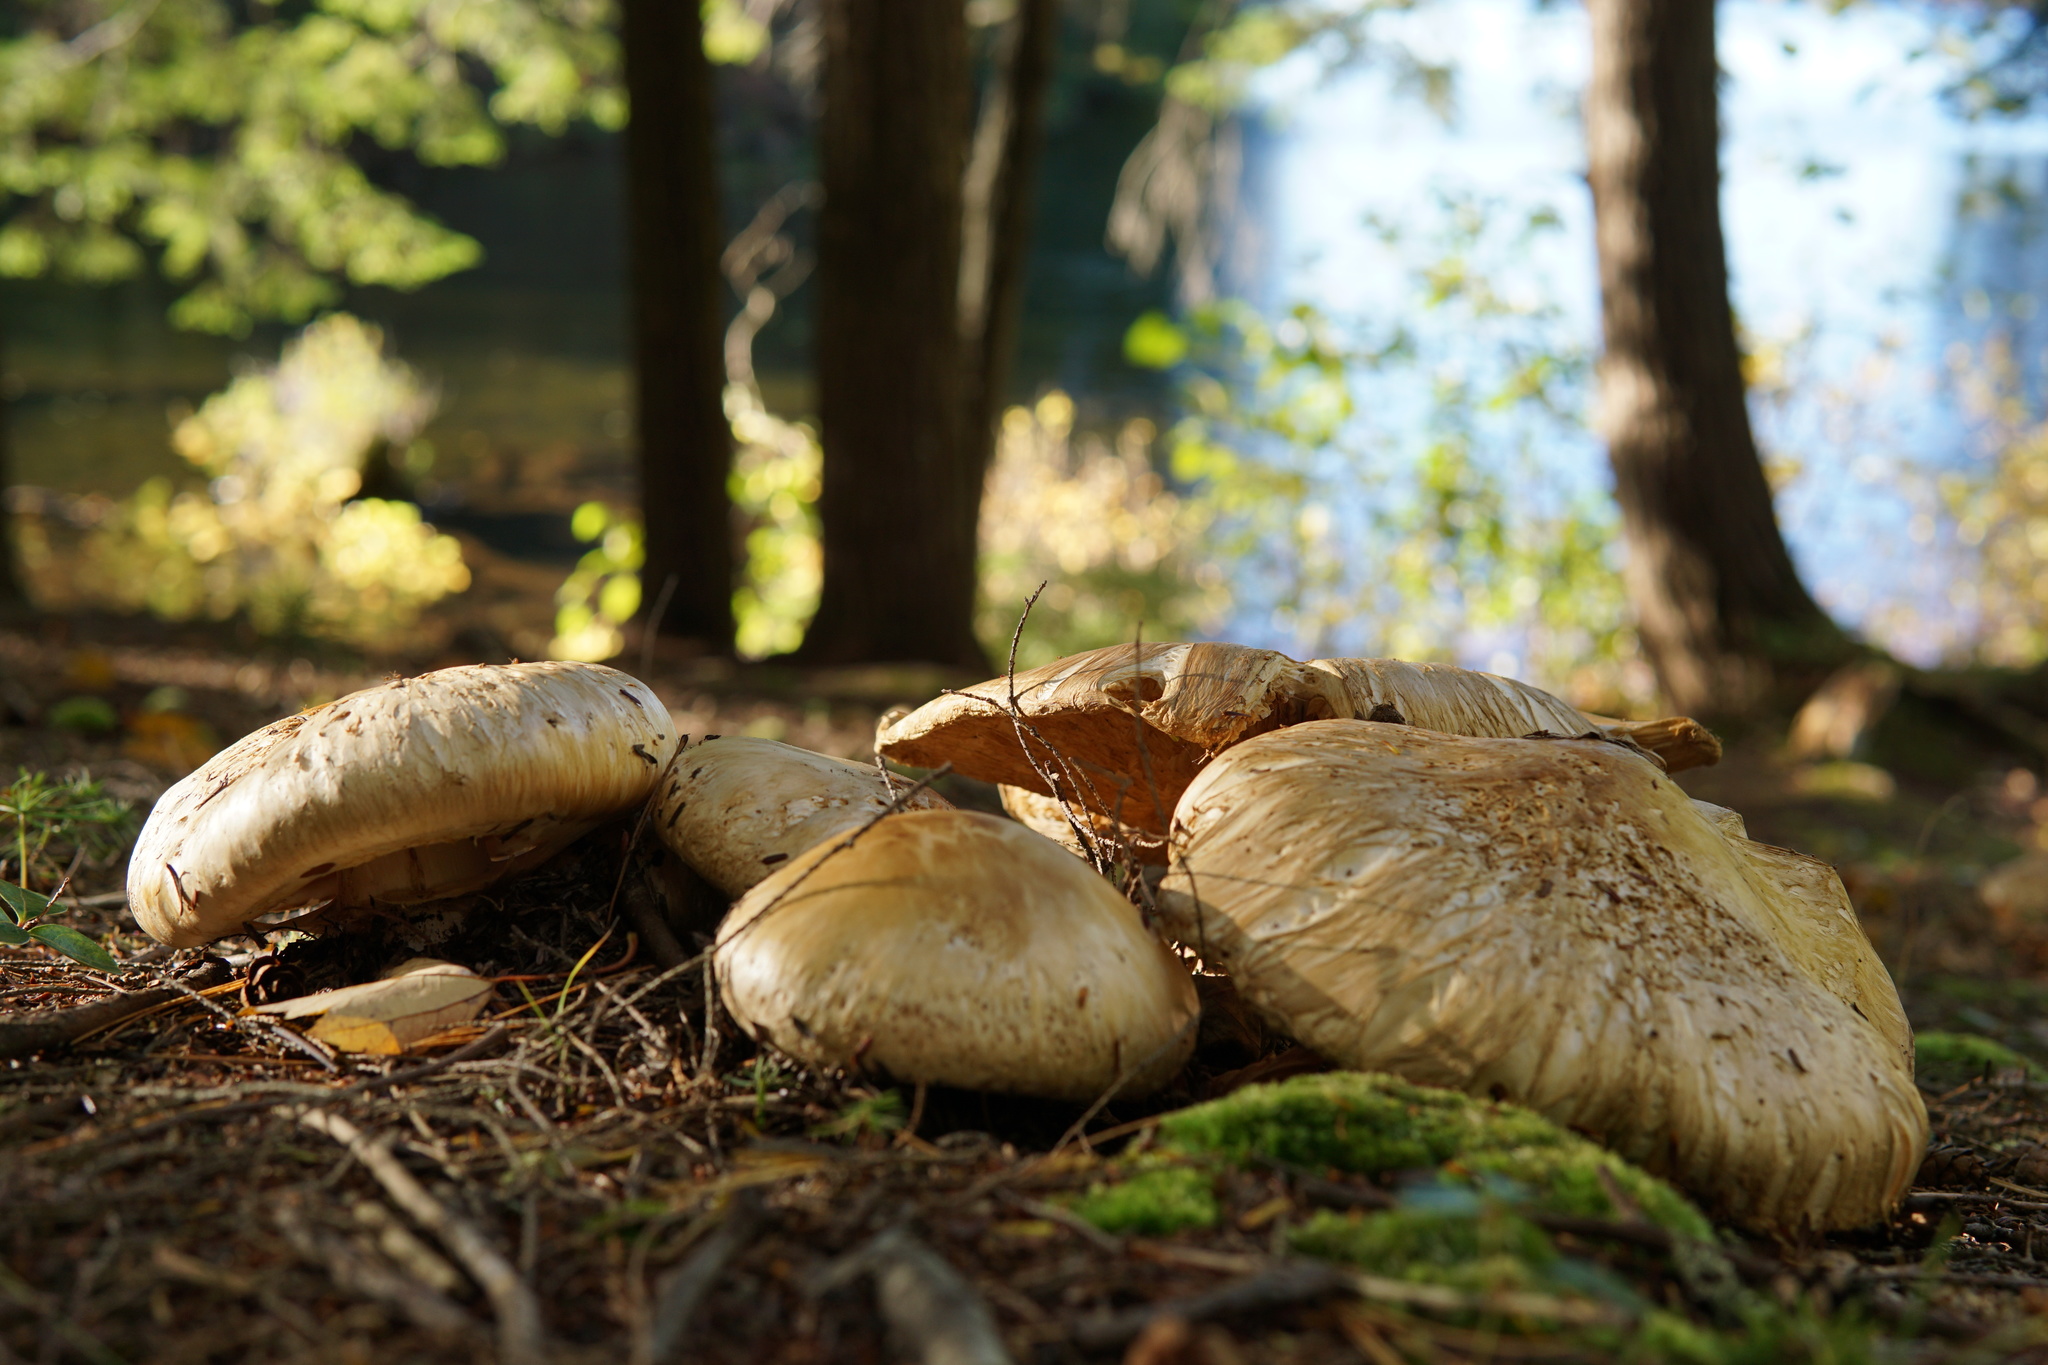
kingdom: Fungi
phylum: Basidiomycota
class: Agaricomycetes
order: Agaricales
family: Tricholomataceae
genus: Tricholoma
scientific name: Tricholoma magnivelare
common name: American matsutake
